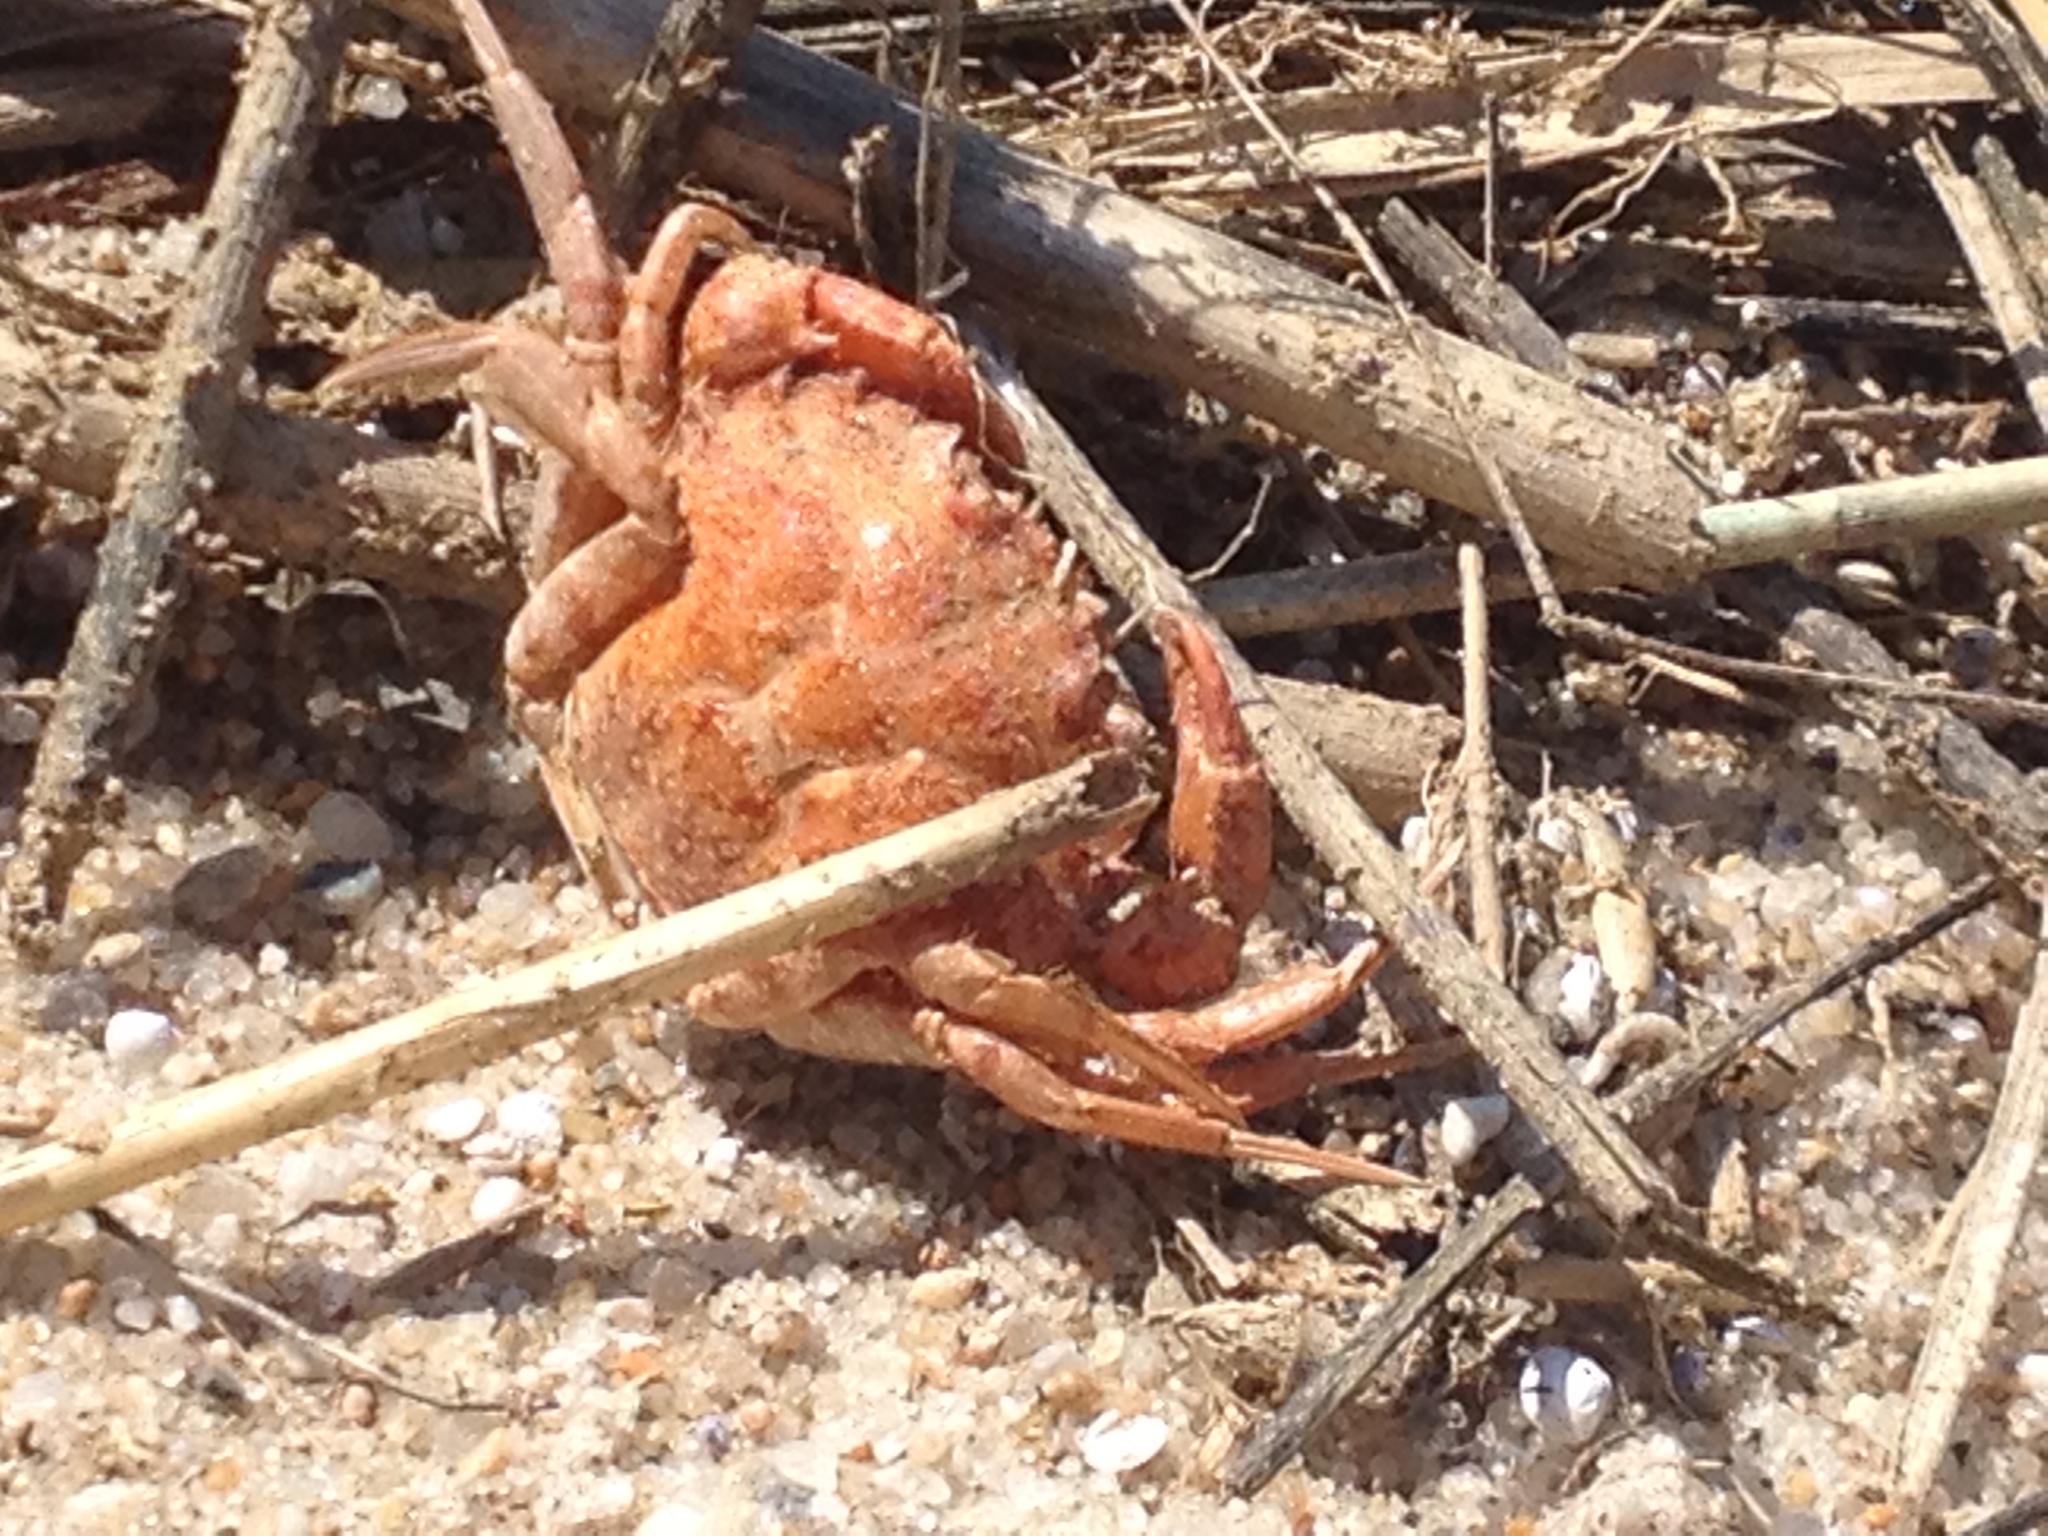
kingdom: Animalia
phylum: Arthropoda
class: Malacostraca
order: Decapoda
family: Carcinidae
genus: Carcinus
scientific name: Carcinus maenas
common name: European green crab
